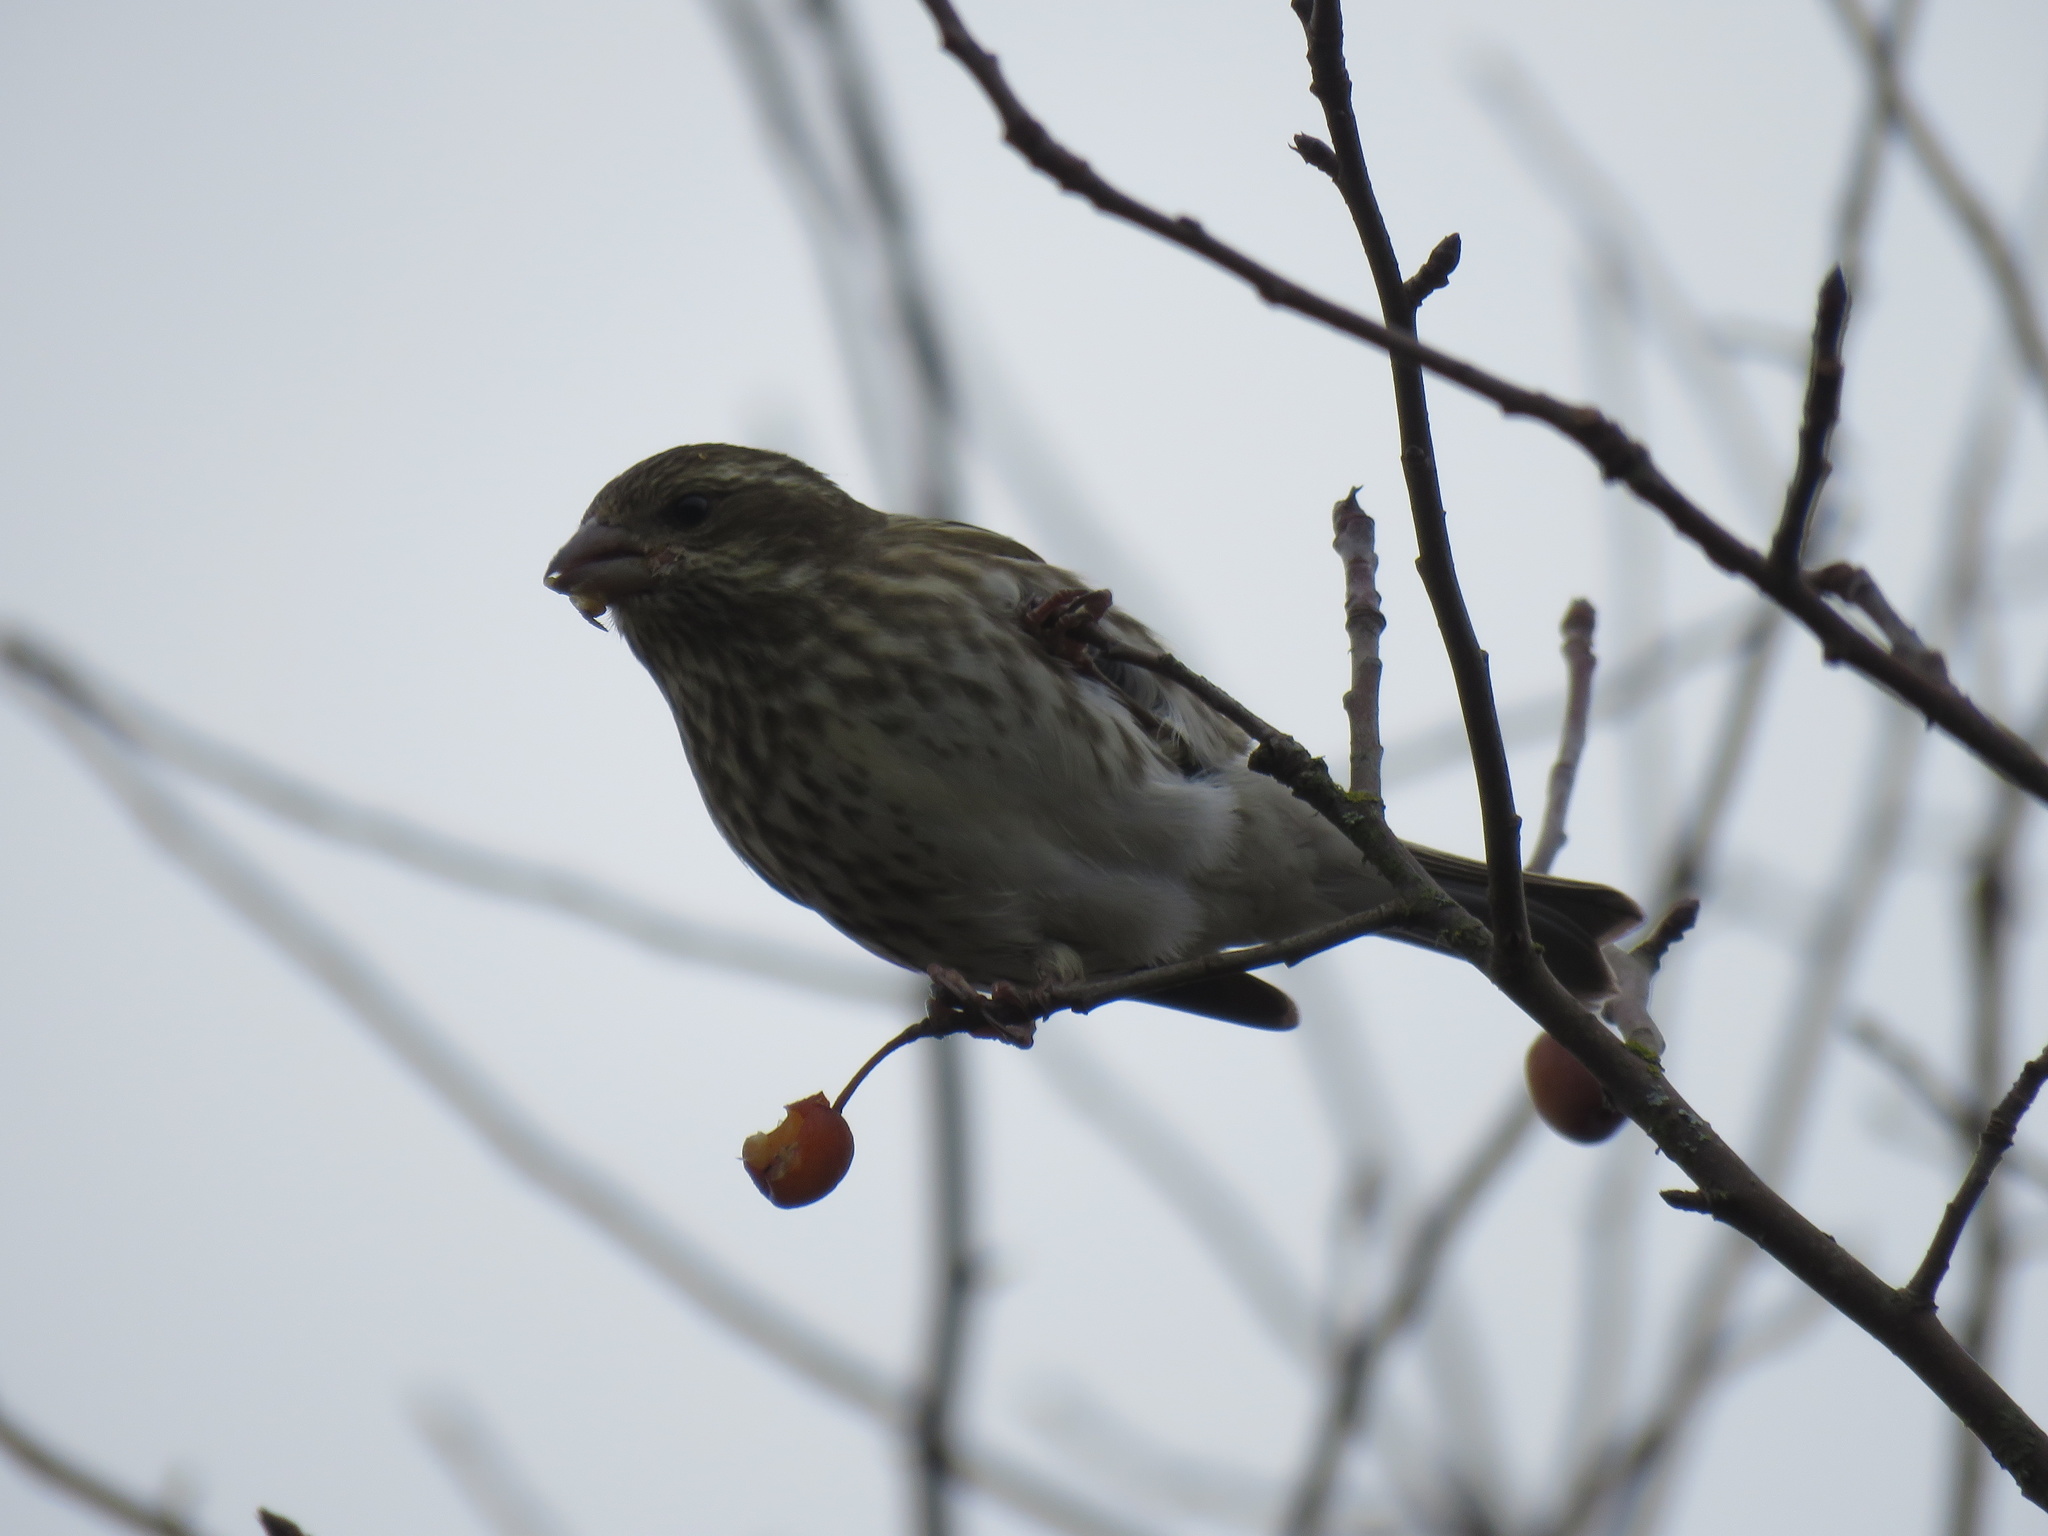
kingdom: Animalia
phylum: Chordata
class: Aves
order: Passeriformes
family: Fringillidae
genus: Haemorhous
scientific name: Haemorhous purpureus
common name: Purple finch
